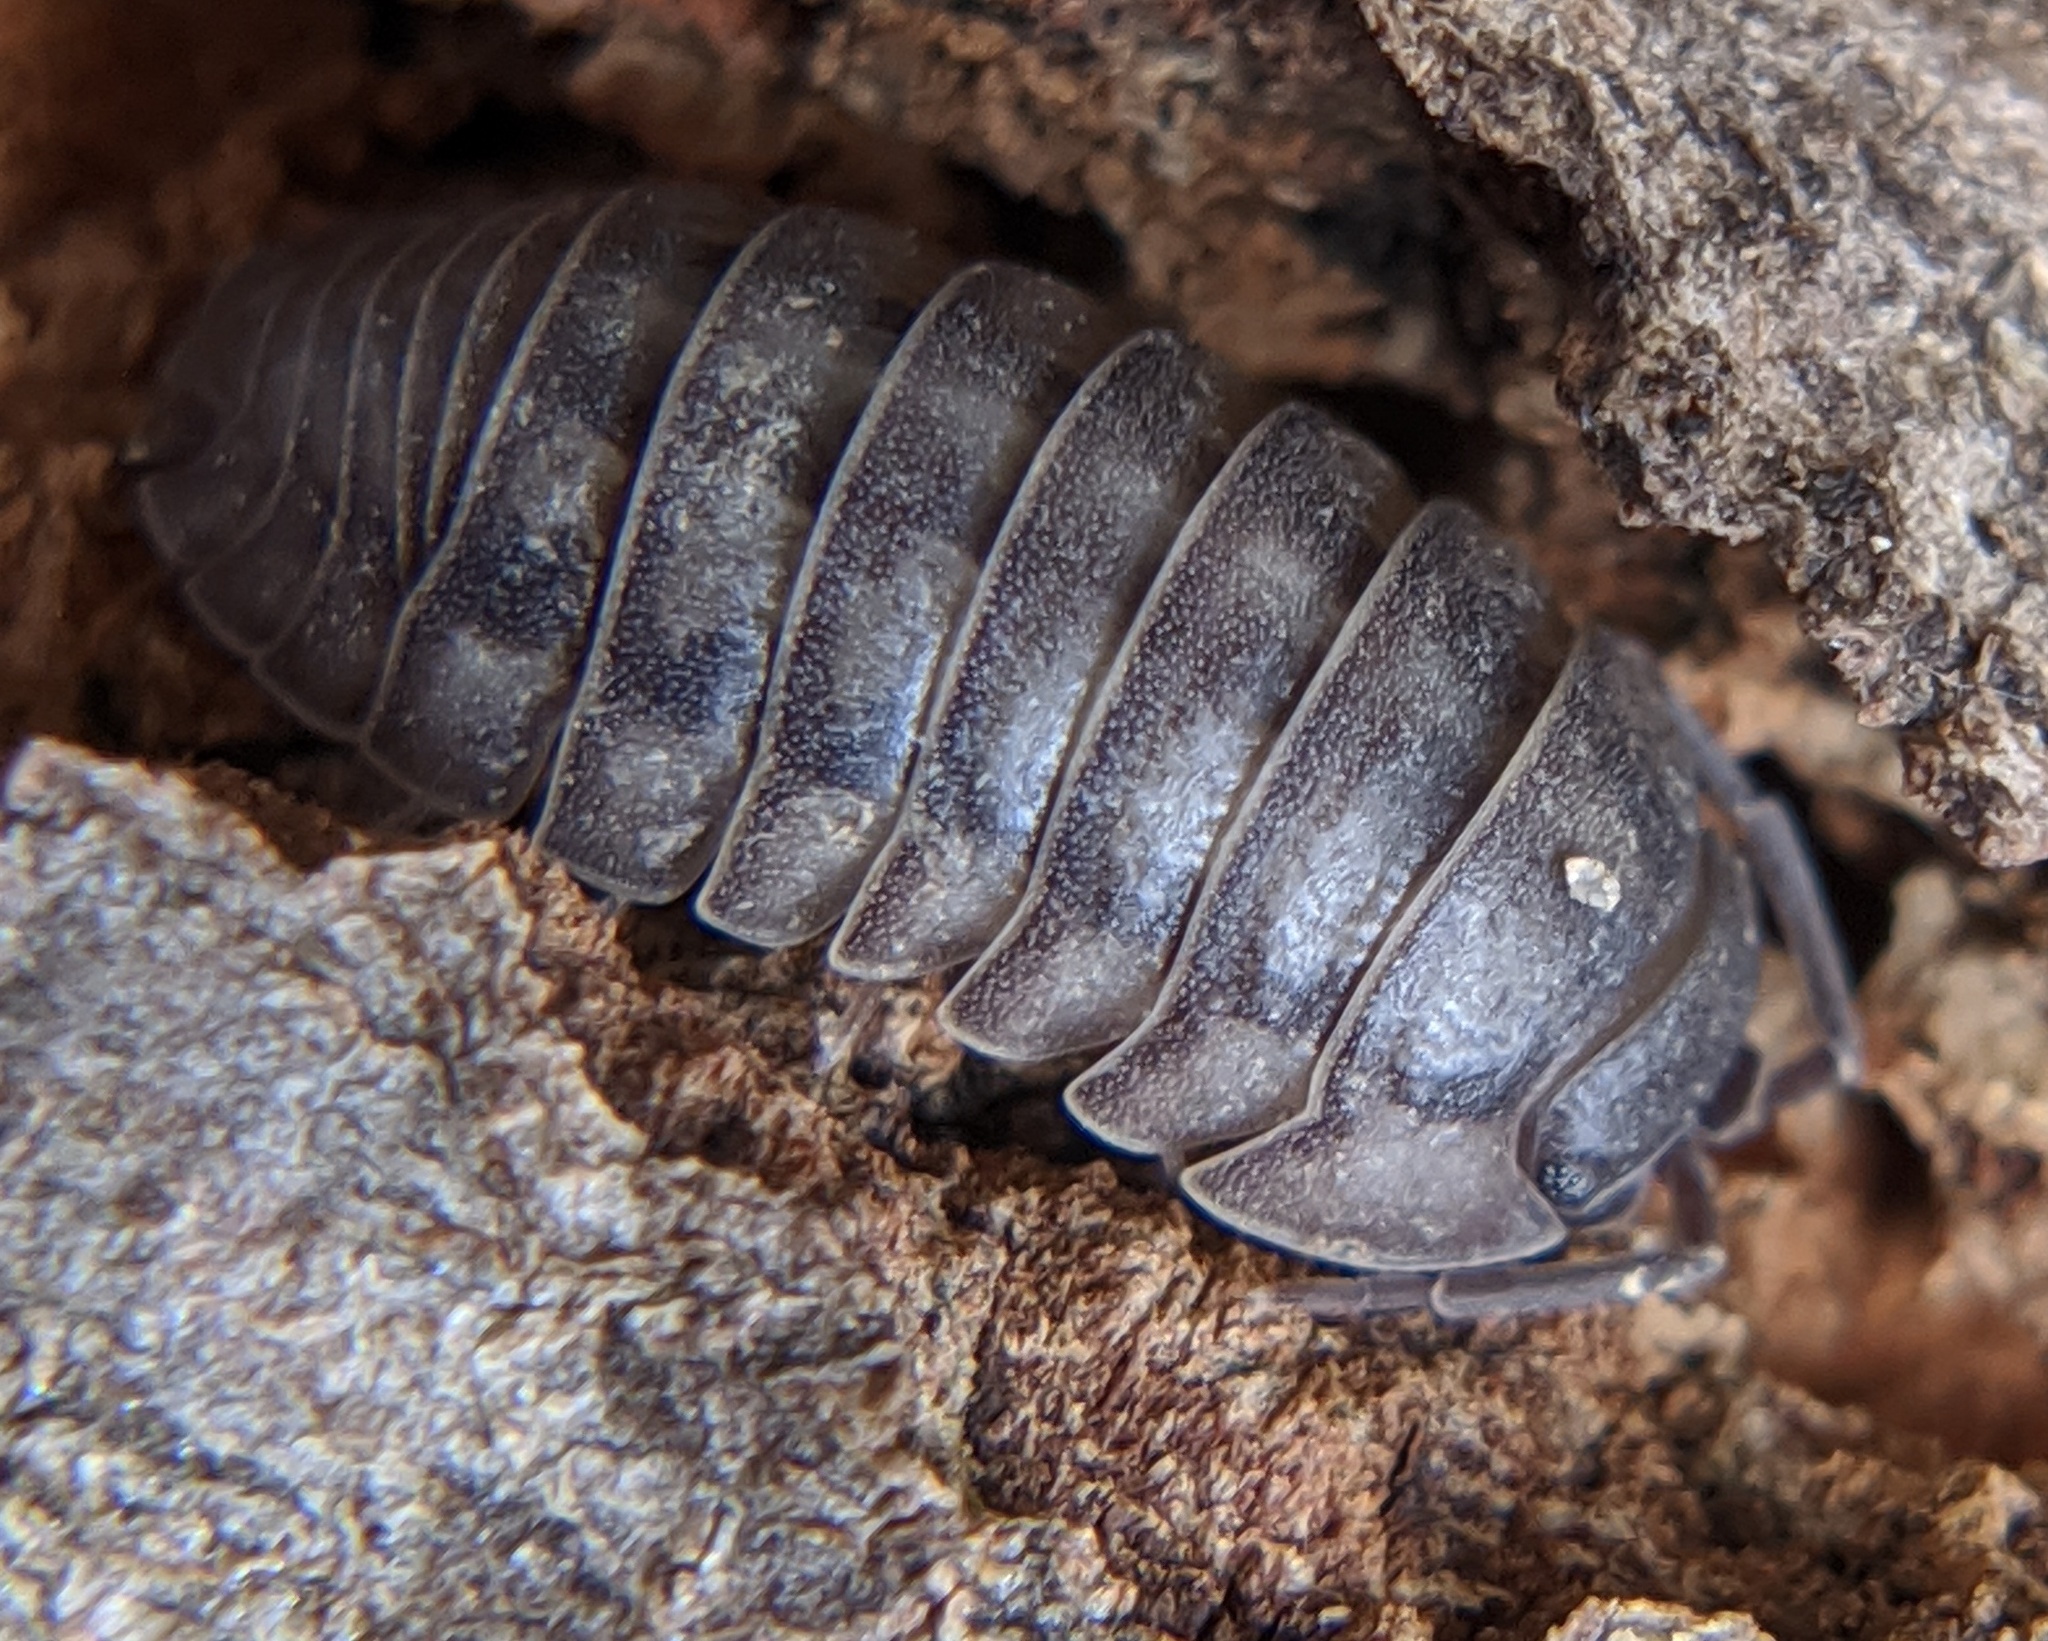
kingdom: Animalia
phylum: Arthropoda
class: Malacostraca
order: Isopoda
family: Armadillidiidae
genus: Armadillidium
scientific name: Armadillidium nasatum
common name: Isopod
